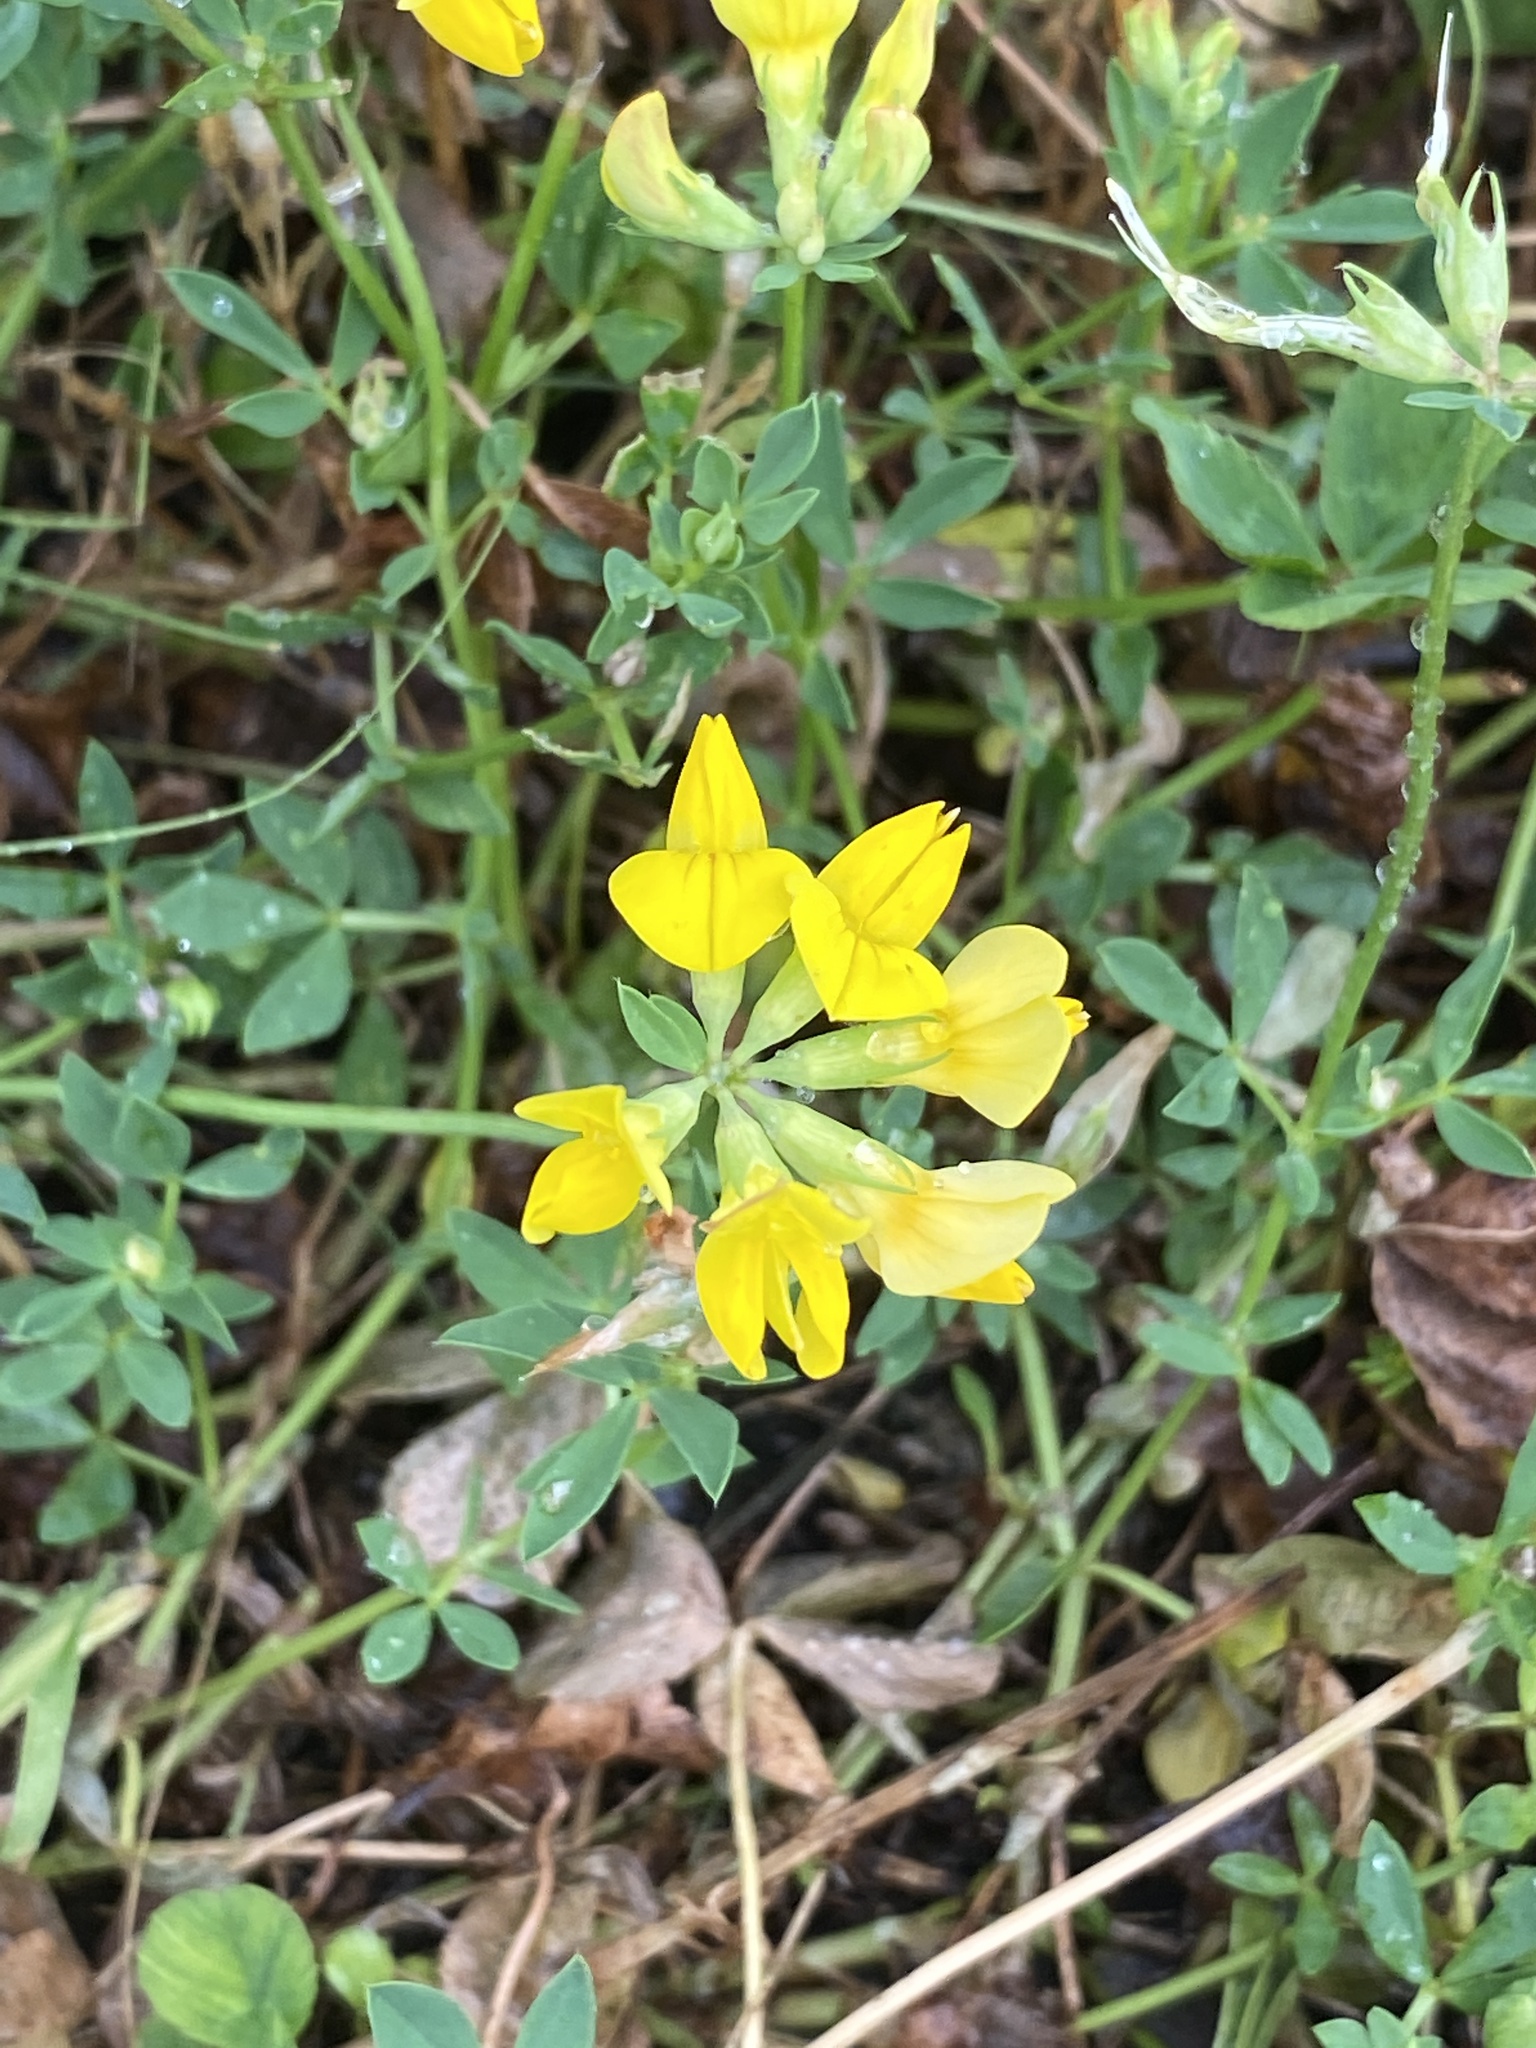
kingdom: Plantae
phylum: Tracheophyta
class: Magnoliopsida
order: Fabales
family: Fabaceae
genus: Lotus
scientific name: Lotus corniculatus
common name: Common bird's-foot-trefoil
